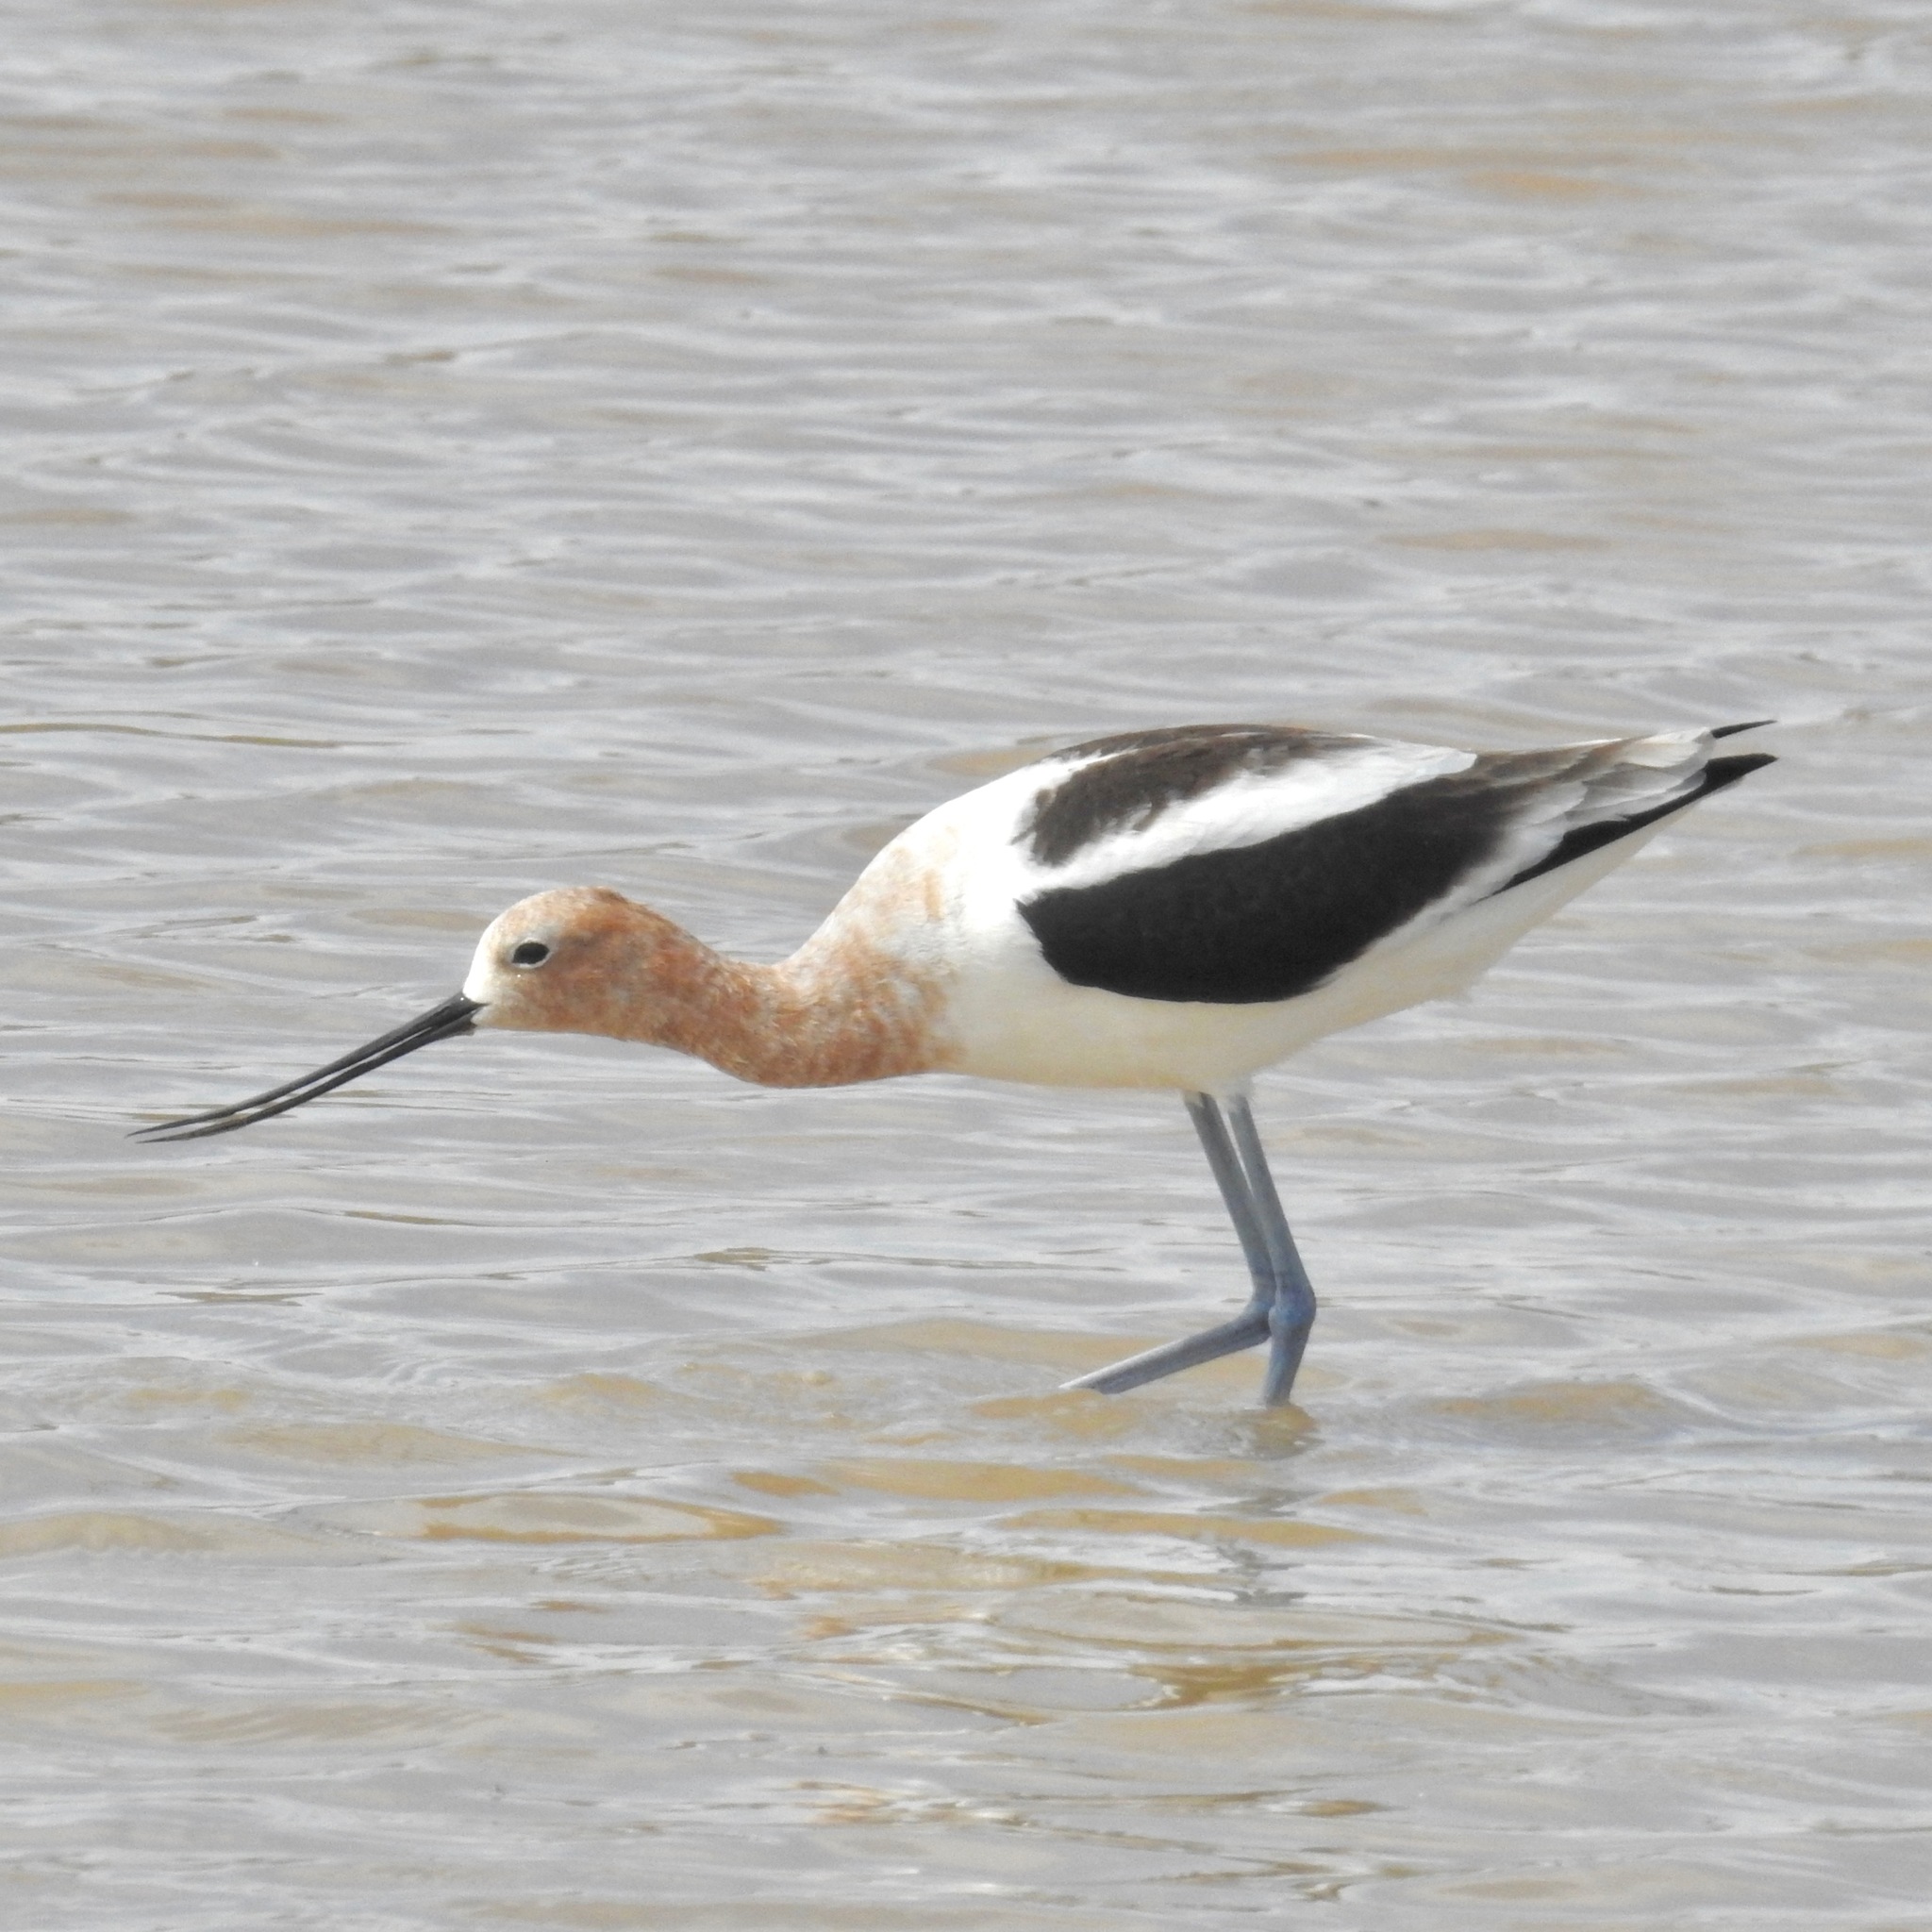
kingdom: Animalia
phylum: Chordata
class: Aves
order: Charadriiformes
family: Recurvirostridae
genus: Recurvirostra
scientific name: Recurvirostra americana
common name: American avocet
